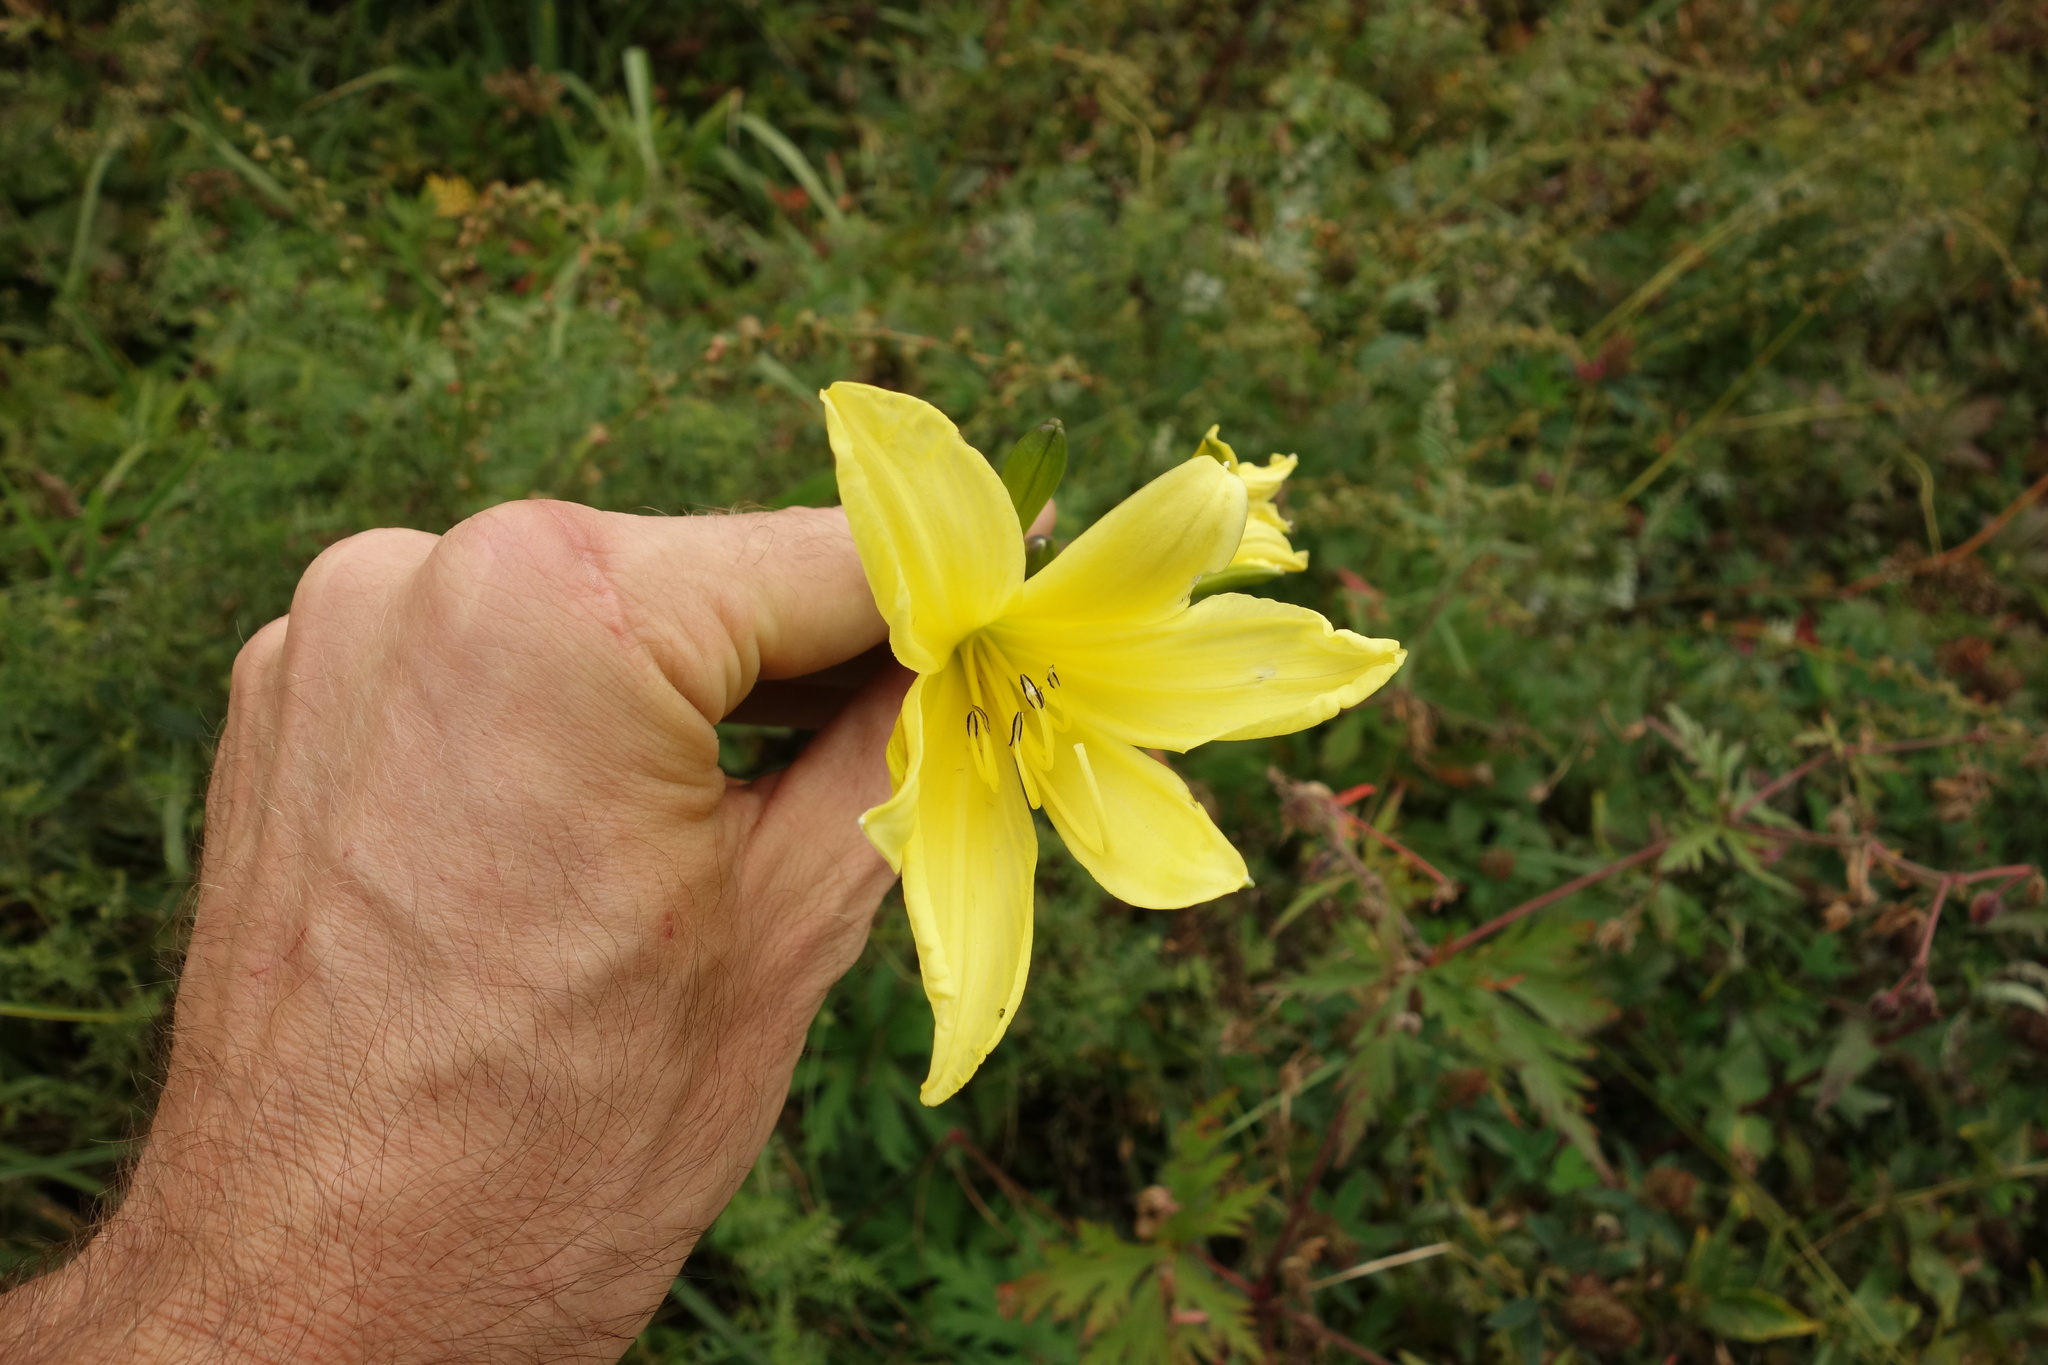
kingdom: Plantae
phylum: Tracheophyta
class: Liliopsida
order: Asparagales
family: Asphodelaceae
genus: Hemerocallis
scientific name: Hemerocallis minor
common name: Small daylily
